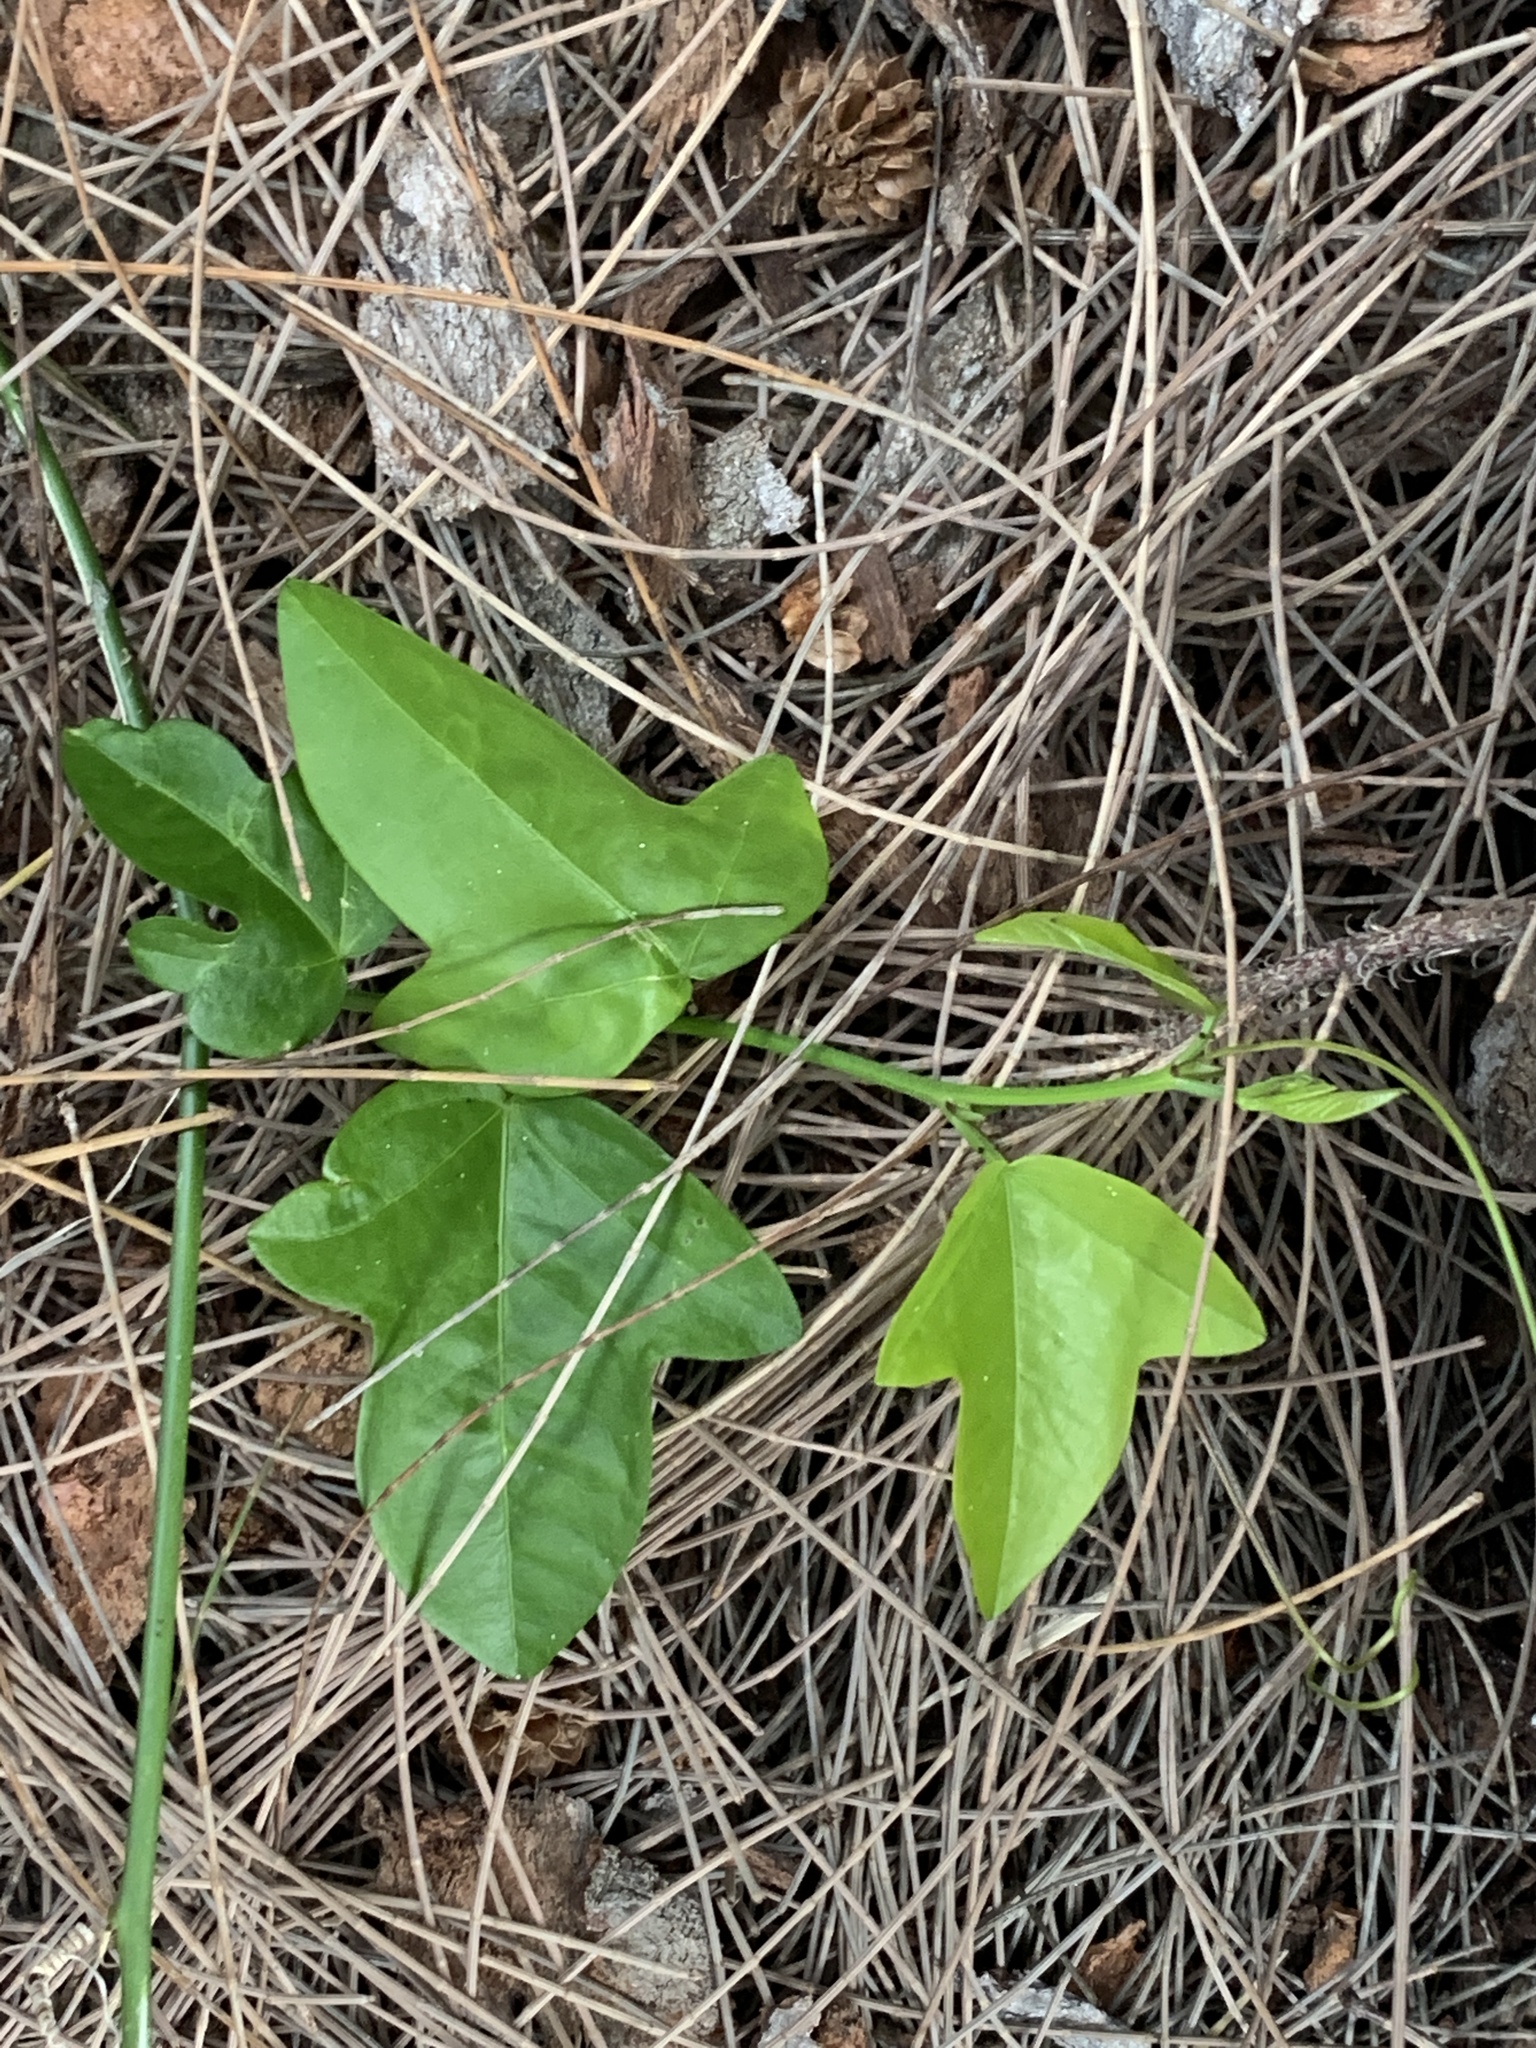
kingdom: Plantae
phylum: Tracheophyta
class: Magnoliopsida
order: Malpighiales
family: Passifloraceae
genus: Passiflora
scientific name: Passiflora pallida
